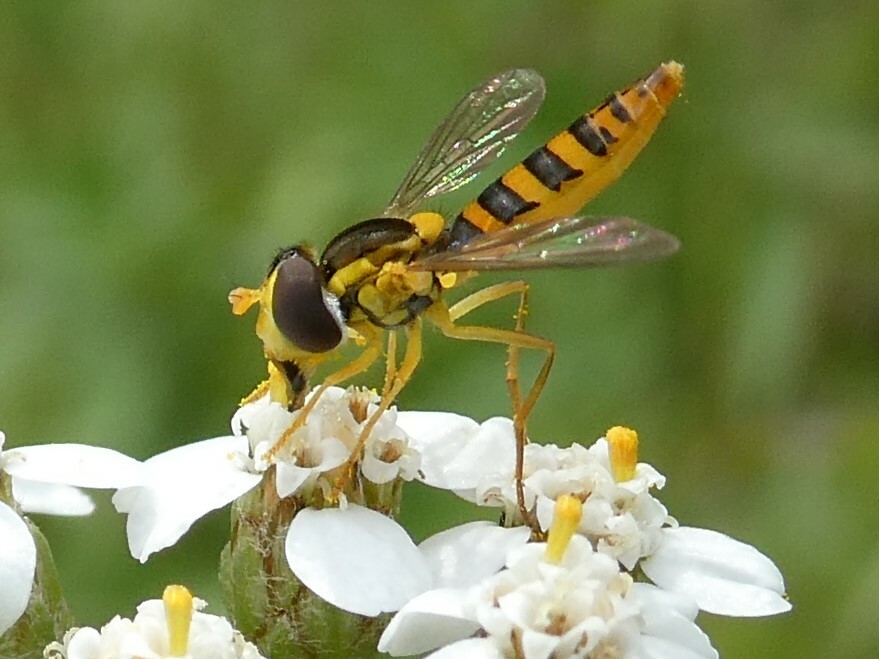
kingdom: Animalia
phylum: Arthropoda
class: Insecta
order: Diptera
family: Syrphidae
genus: Sphaerophoria
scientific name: Sphaerophoria
